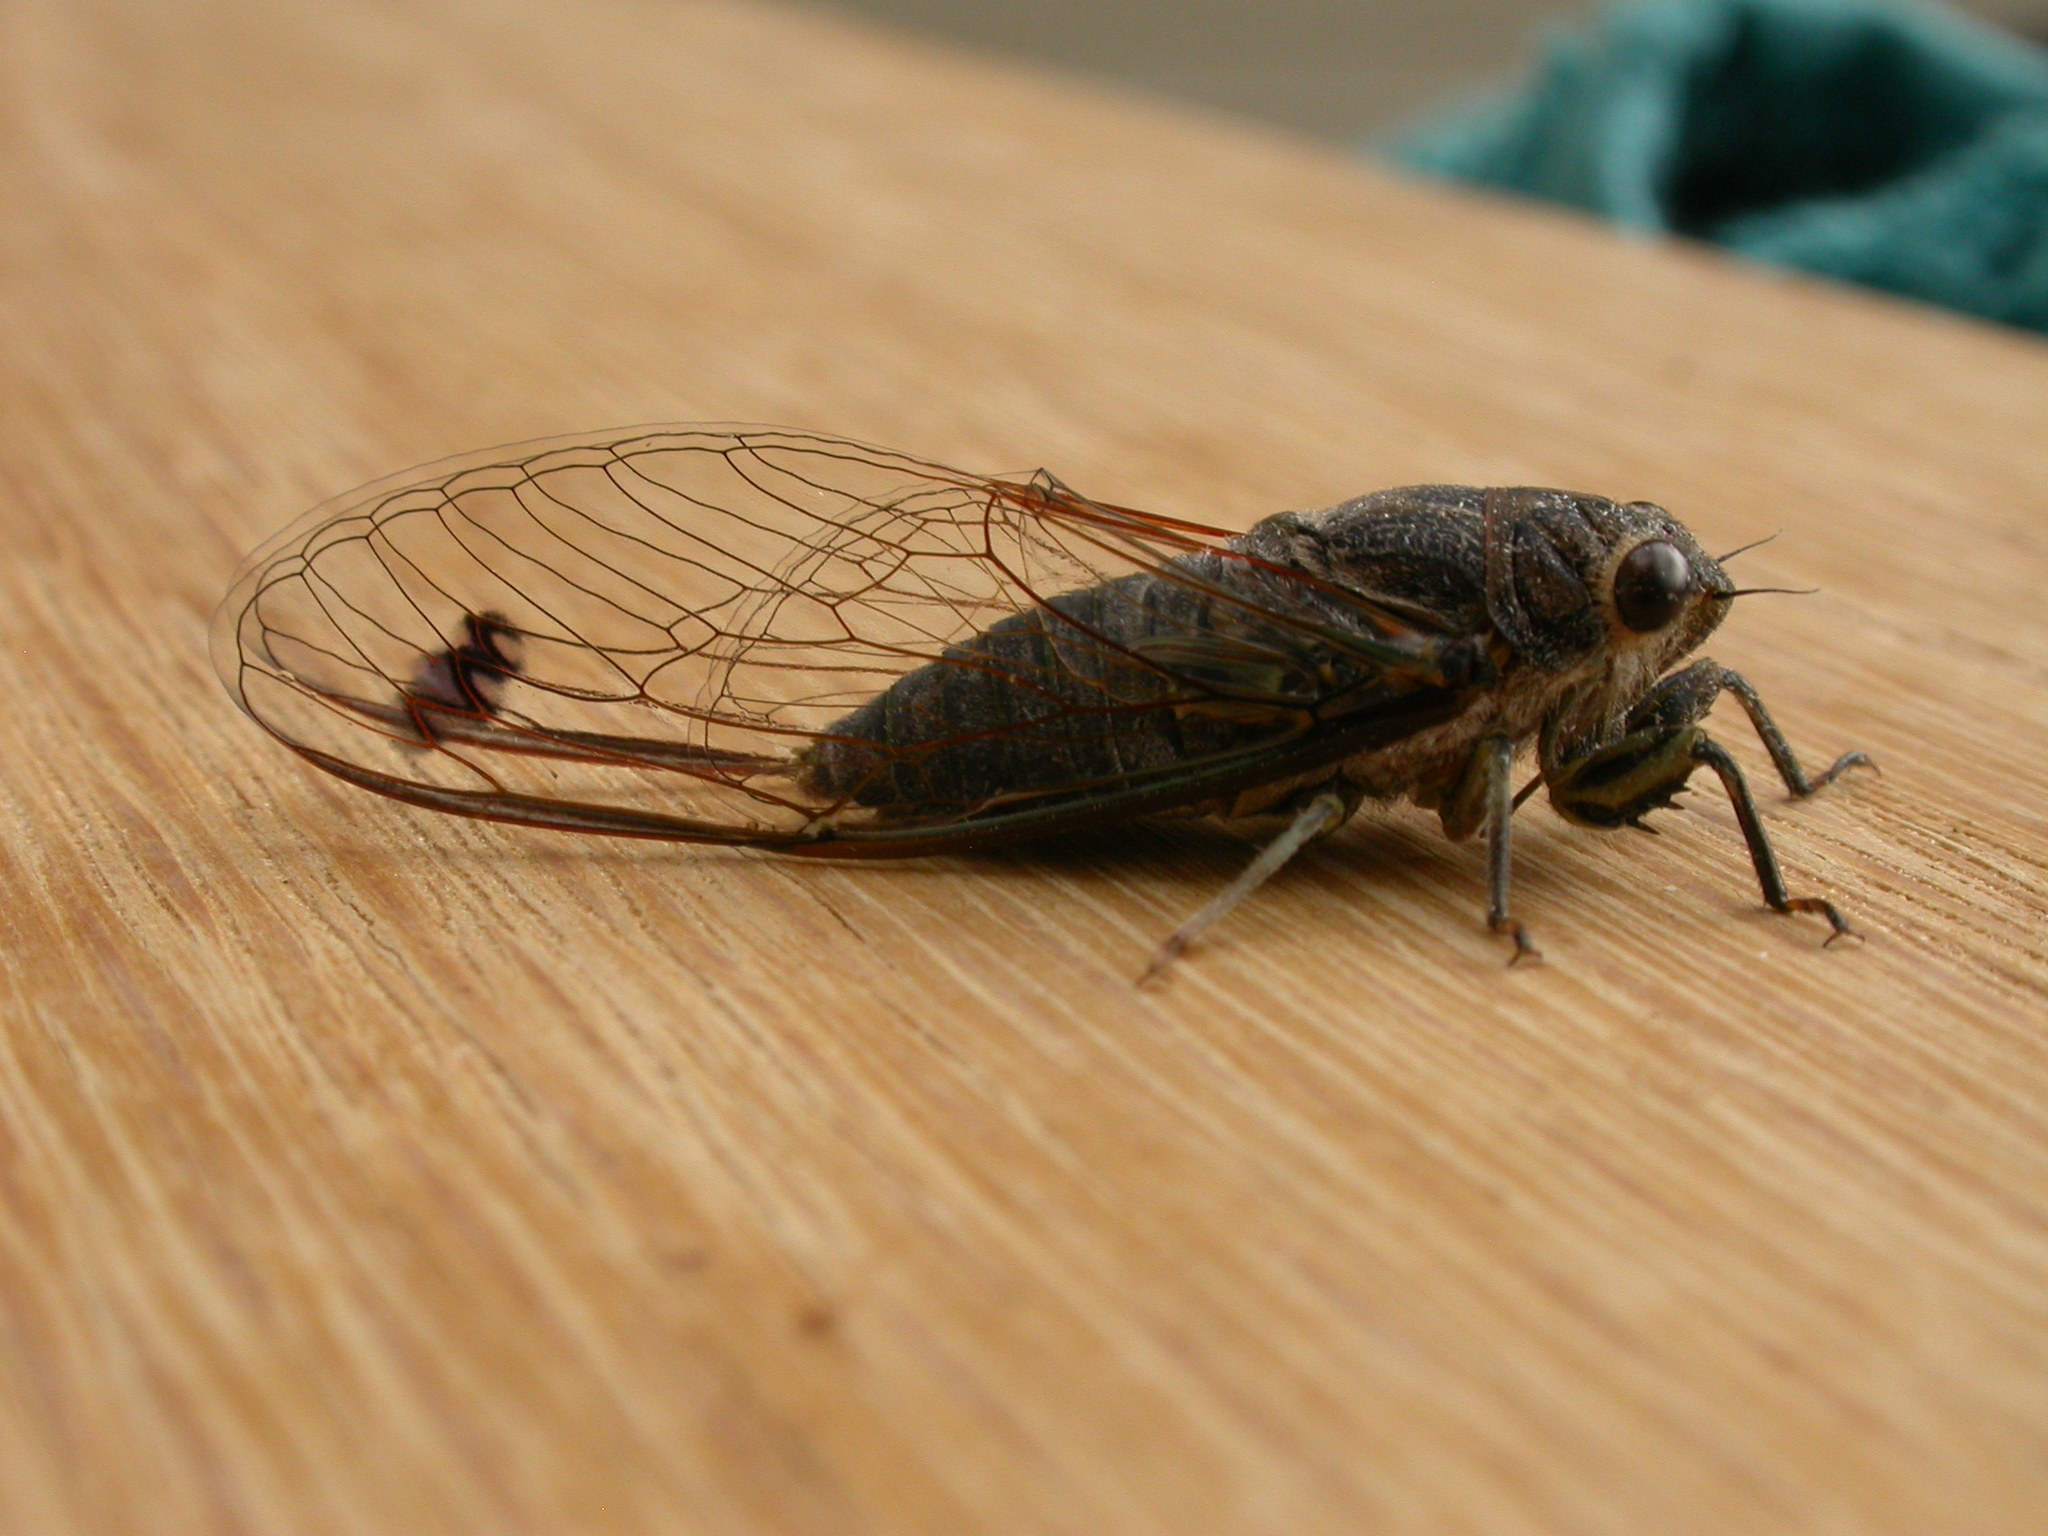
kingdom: Animalia
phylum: Arthropoda
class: Insecta
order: Hemiptera
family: Cicadidae
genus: Galanga
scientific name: Galanga labeculata
